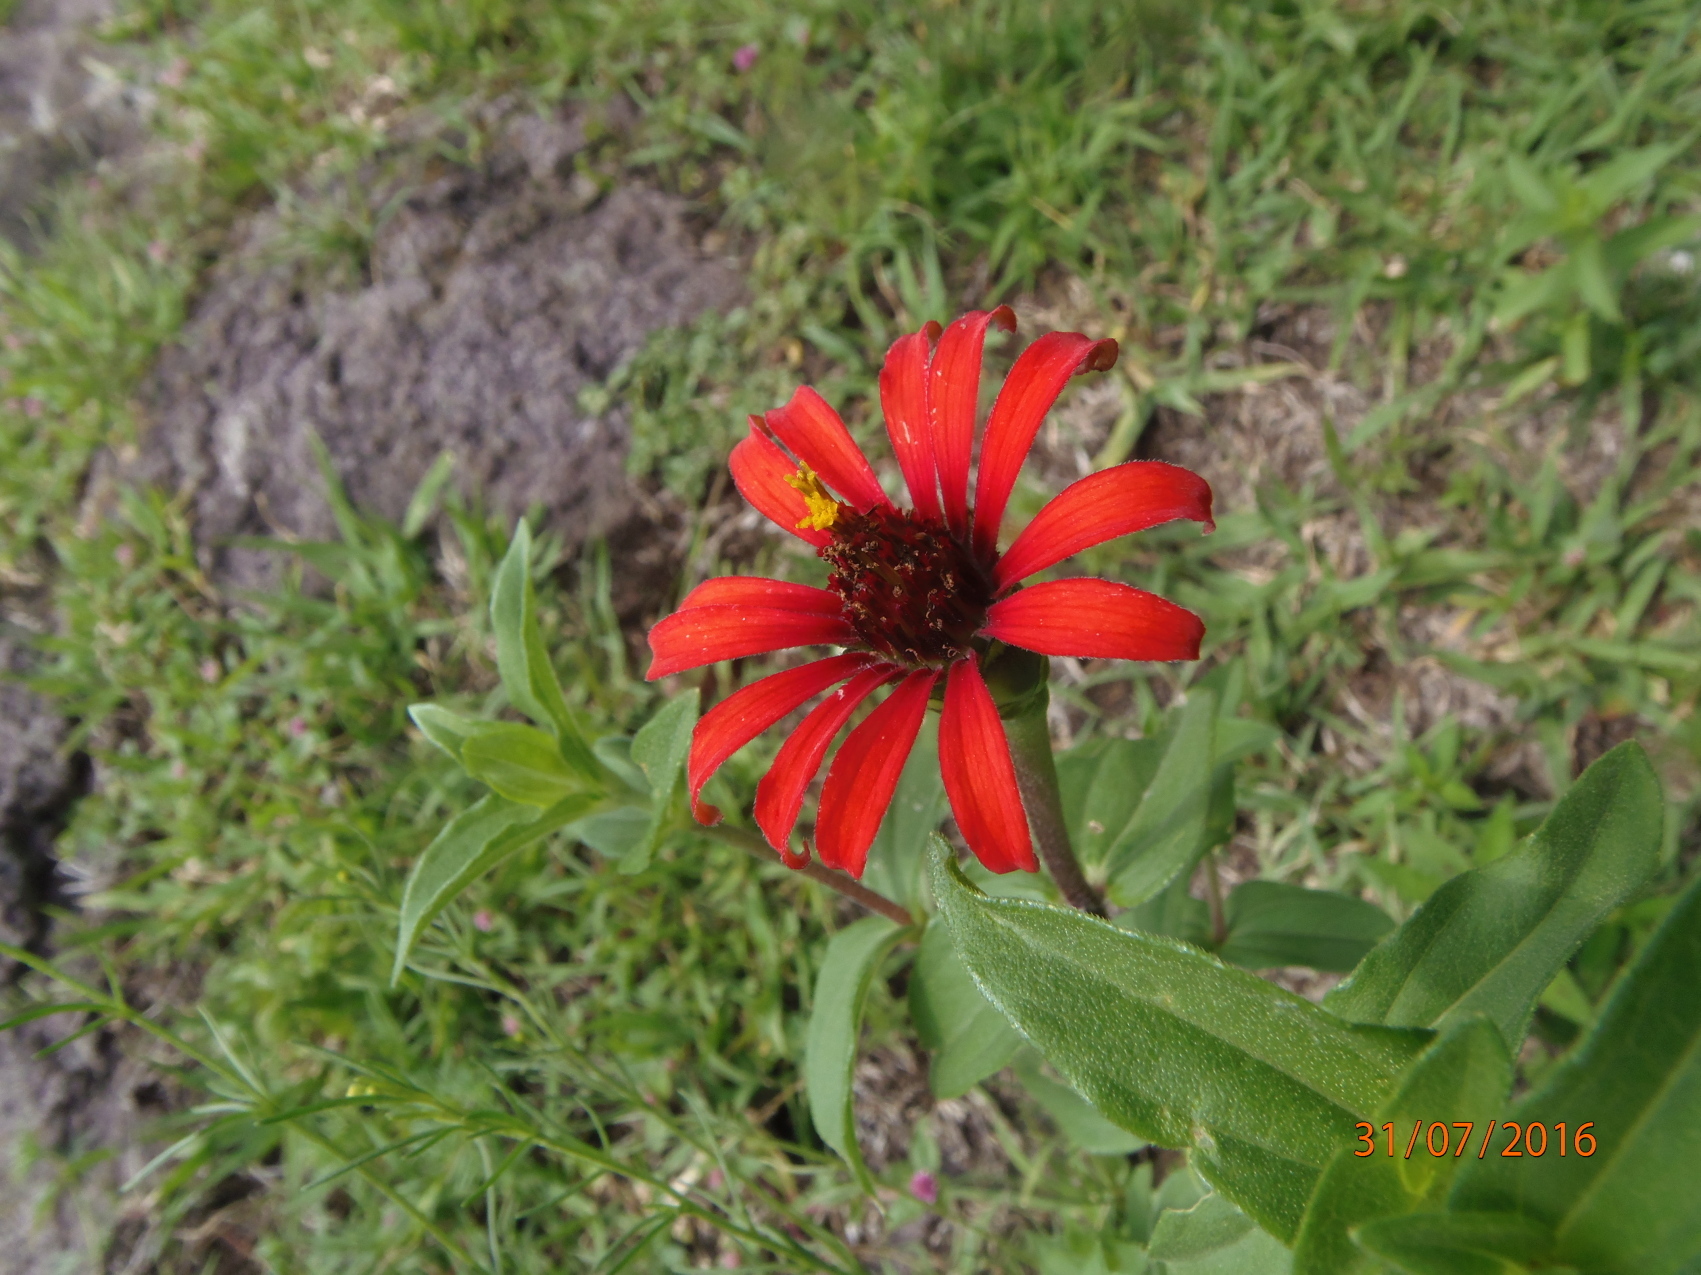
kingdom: Plantae
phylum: Tracheophyta
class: Magnoliopsida
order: Asterales
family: Asteraceae
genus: Zinnia
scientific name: Zinnia peruviana
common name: Peruvian zinnia
